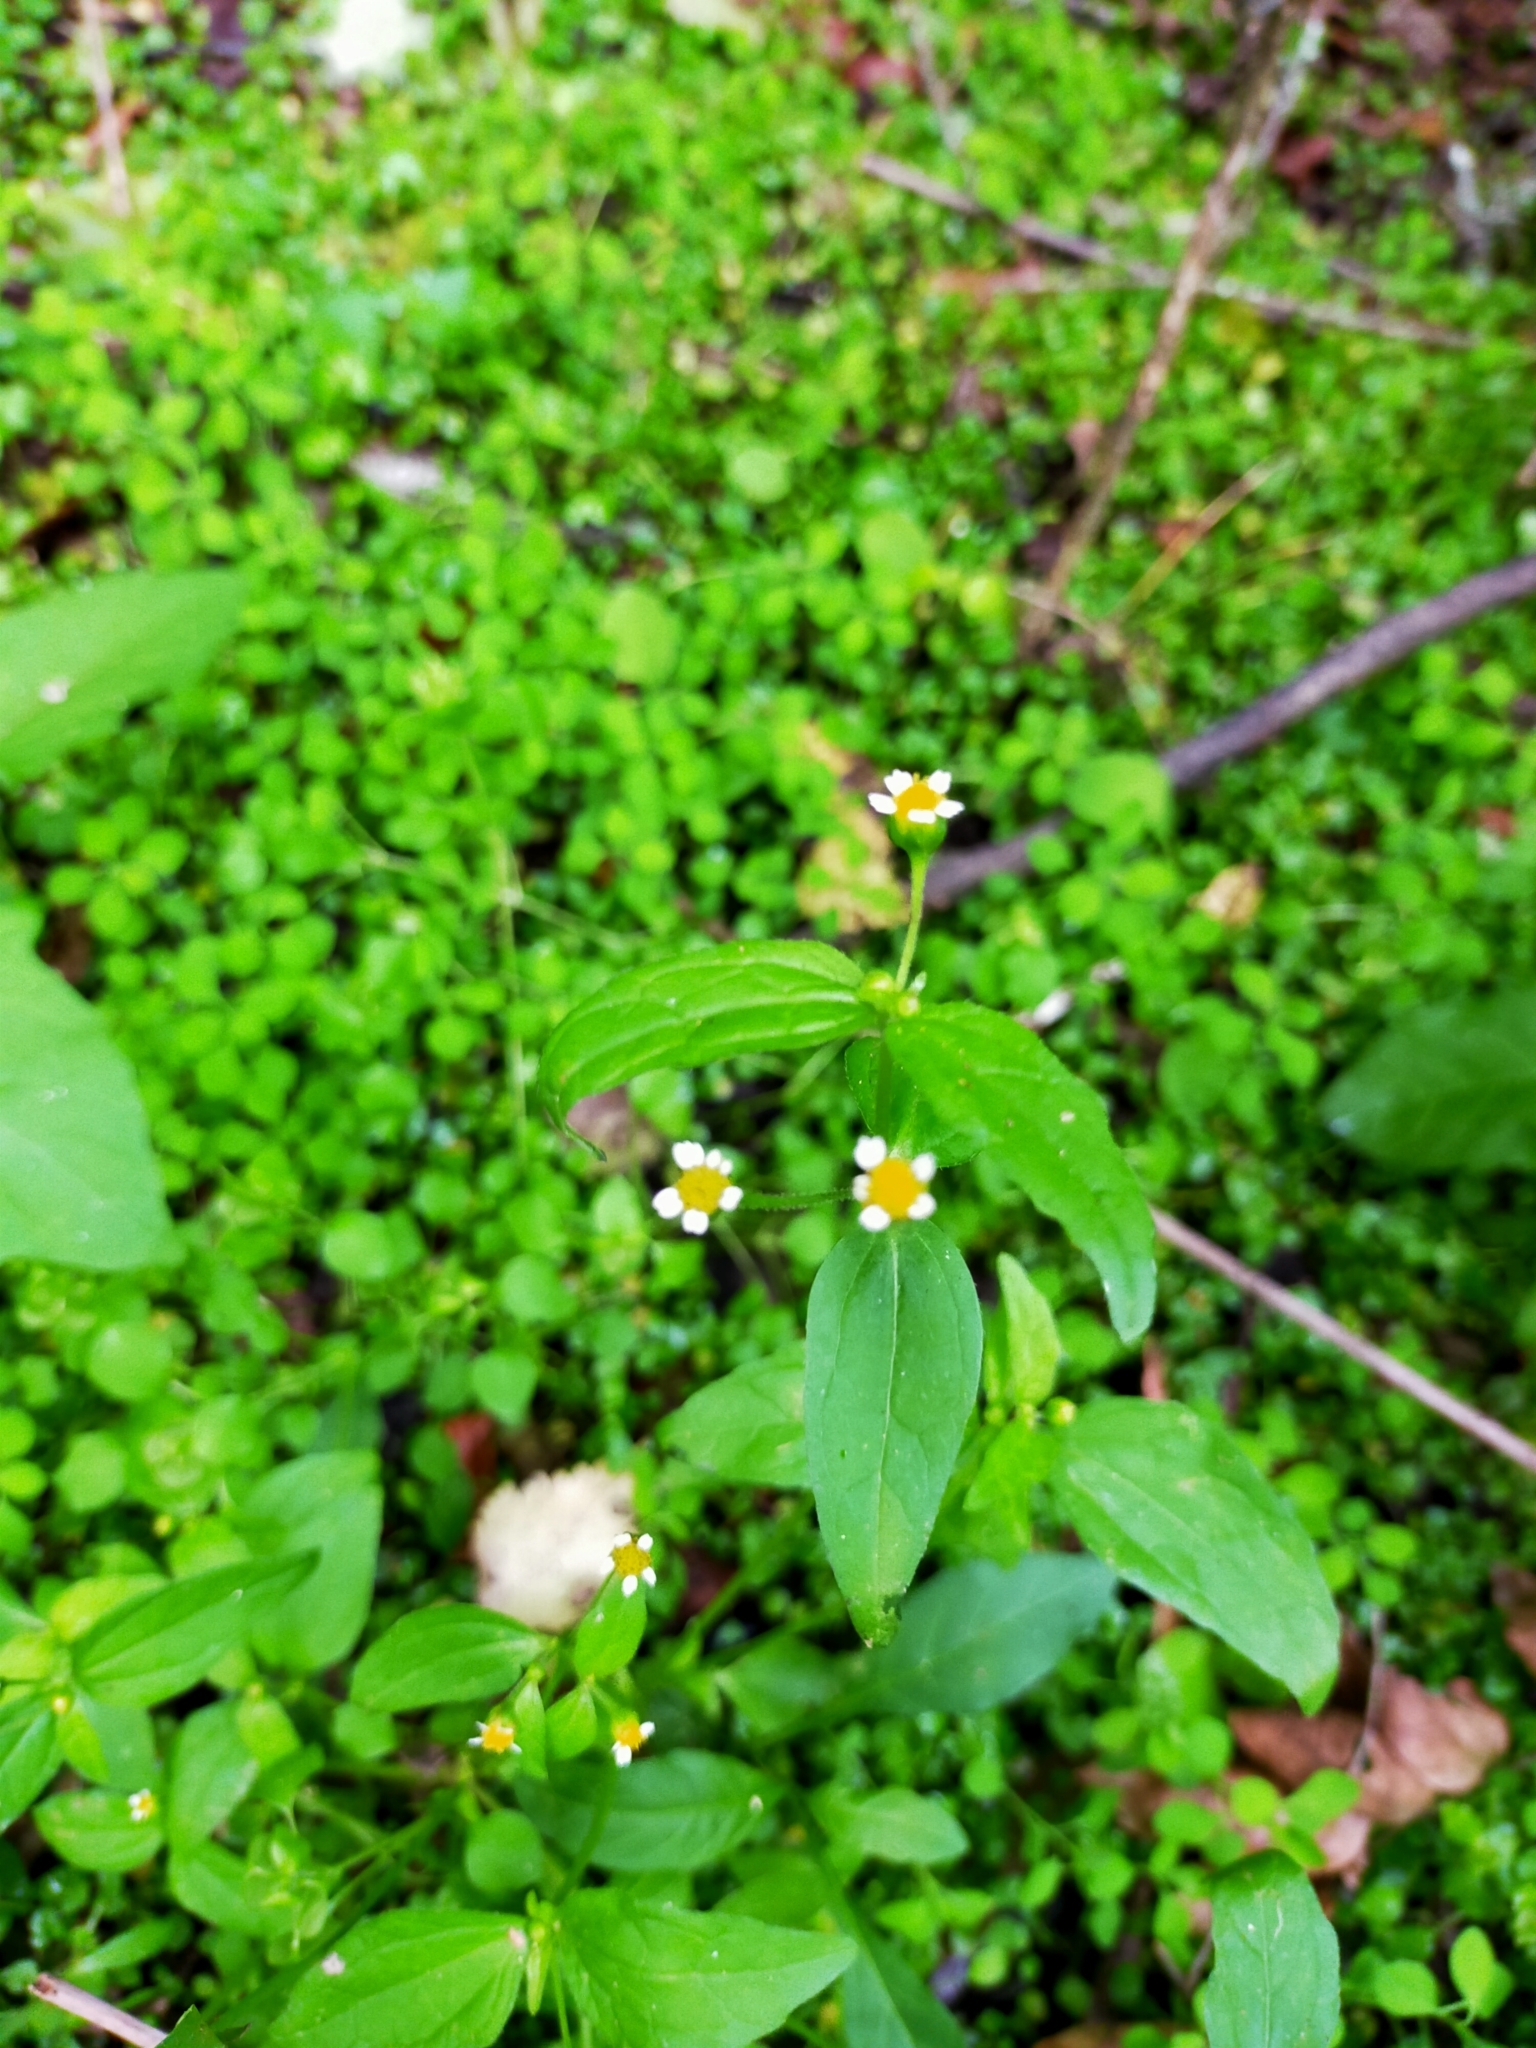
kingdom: Plantae
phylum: Tracheophyta
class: Magnoliopsida
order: Asterales
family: Asteraceae
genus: Galinsoga
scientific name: Galinsoga quadriradiata
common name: Shaggy soldier
